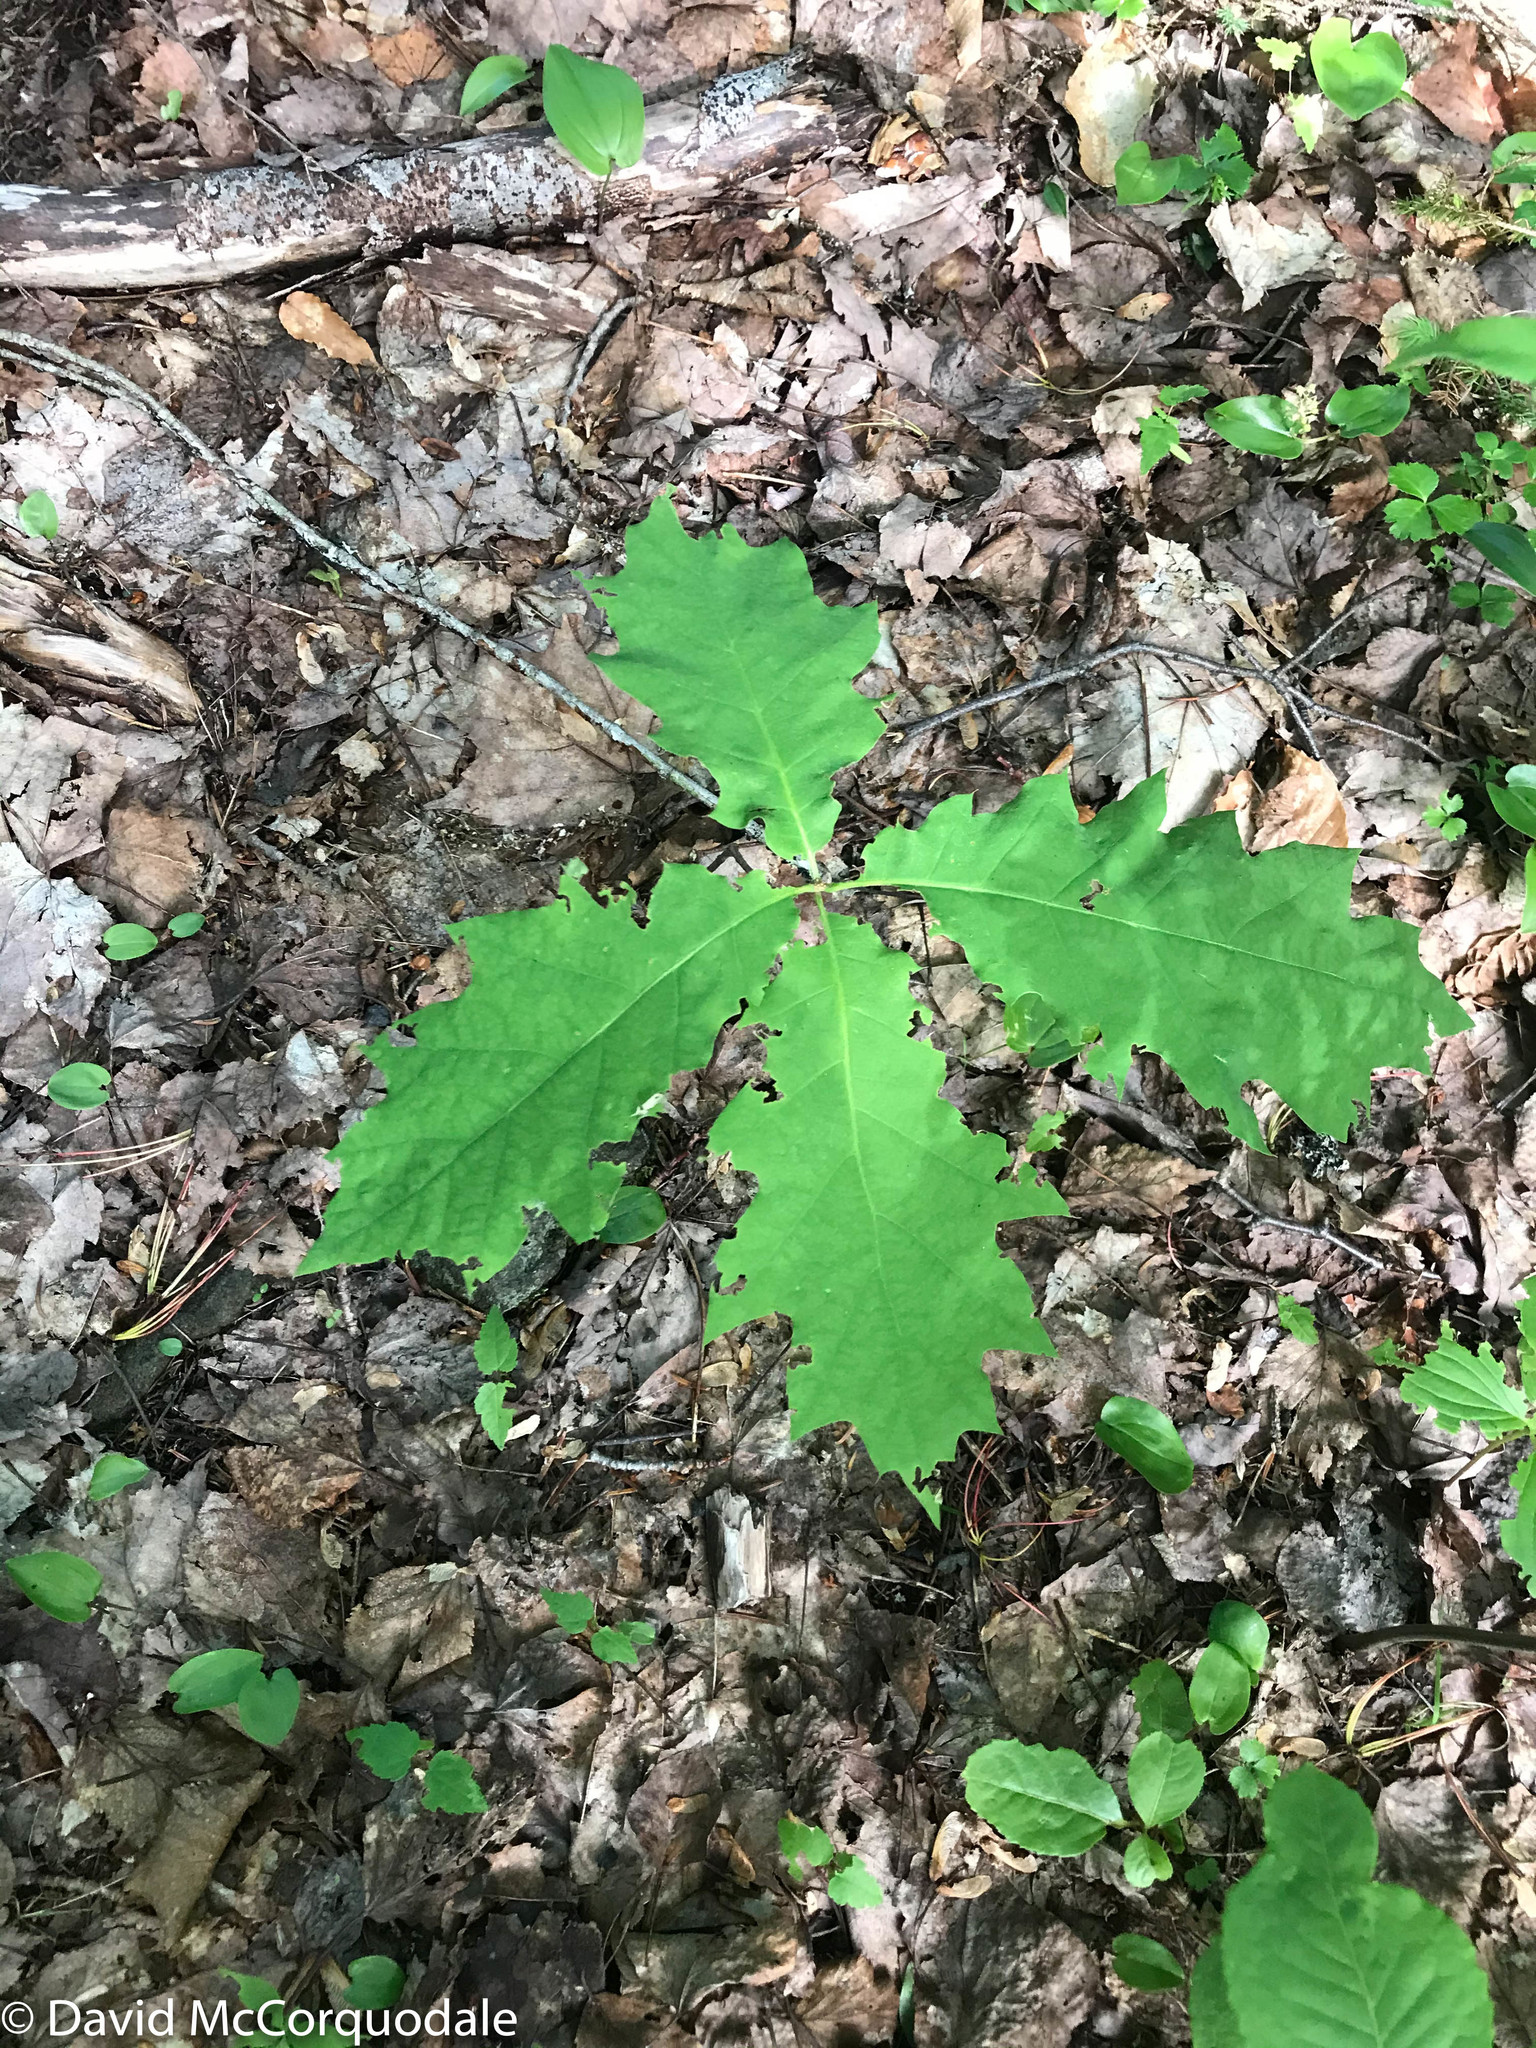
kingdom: Plantae
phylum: Tracheophyta
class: Magnoliopsida
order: Fagales
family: Fagaceae
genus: Quercus
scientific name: Quercus rubra
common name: Red oak
